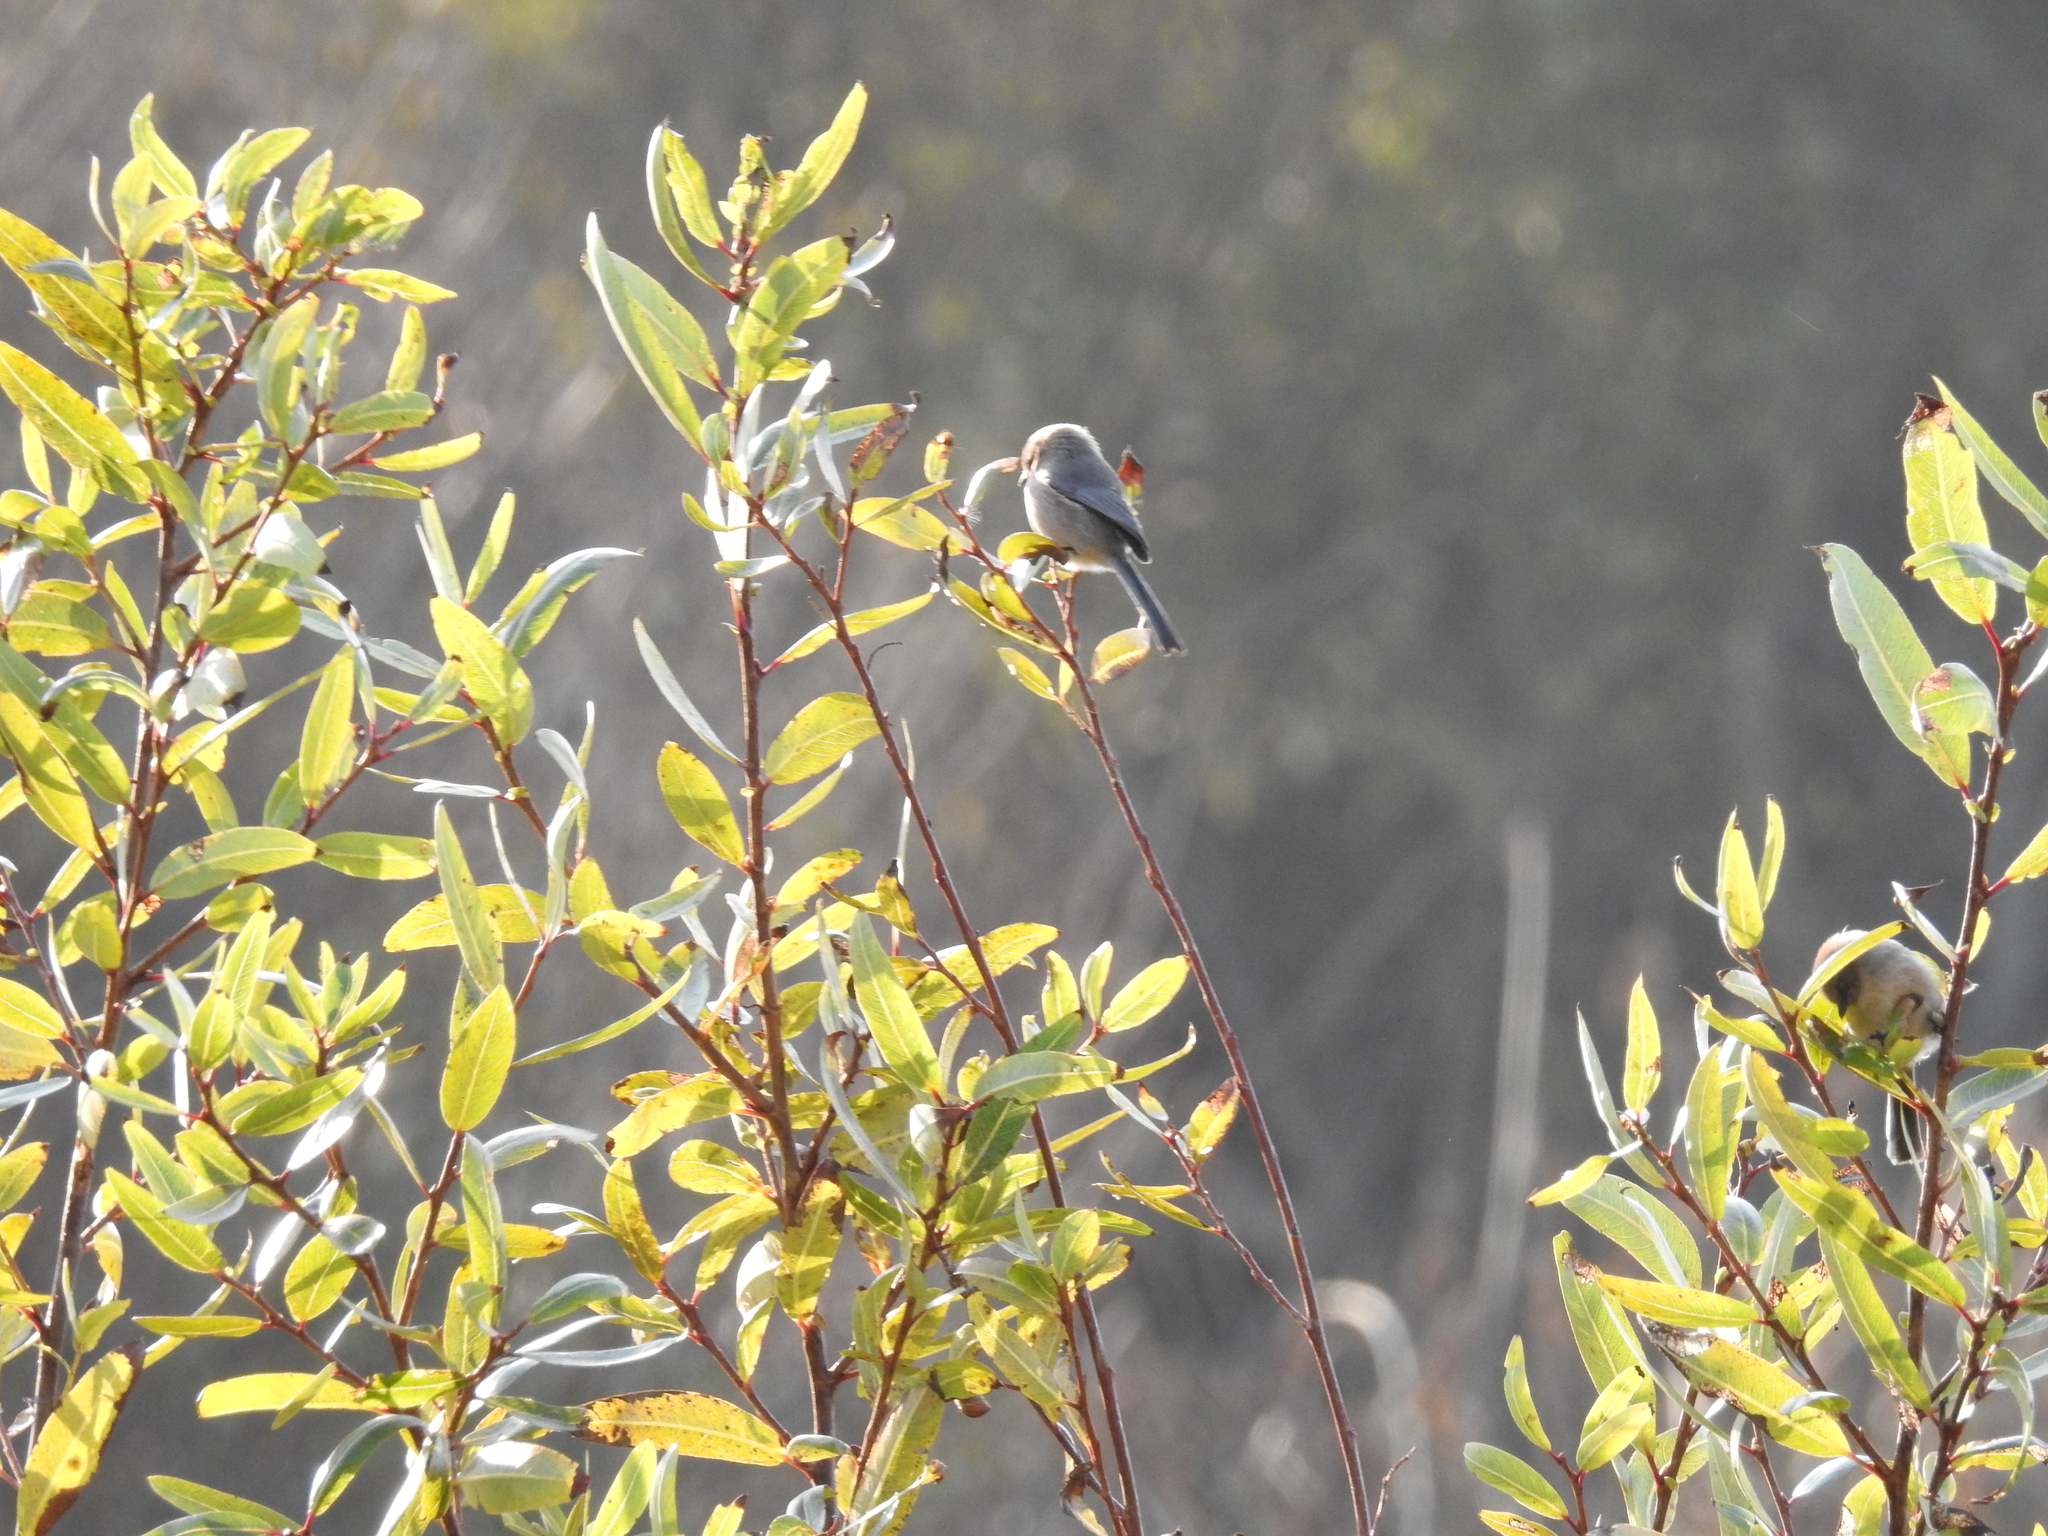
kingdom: Animalia
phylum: Chordata
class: Aves
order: Passeriformes
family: Aegithalidae
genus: Psaltriparus
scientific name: Psaltriparus minimus
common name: American bushtit
